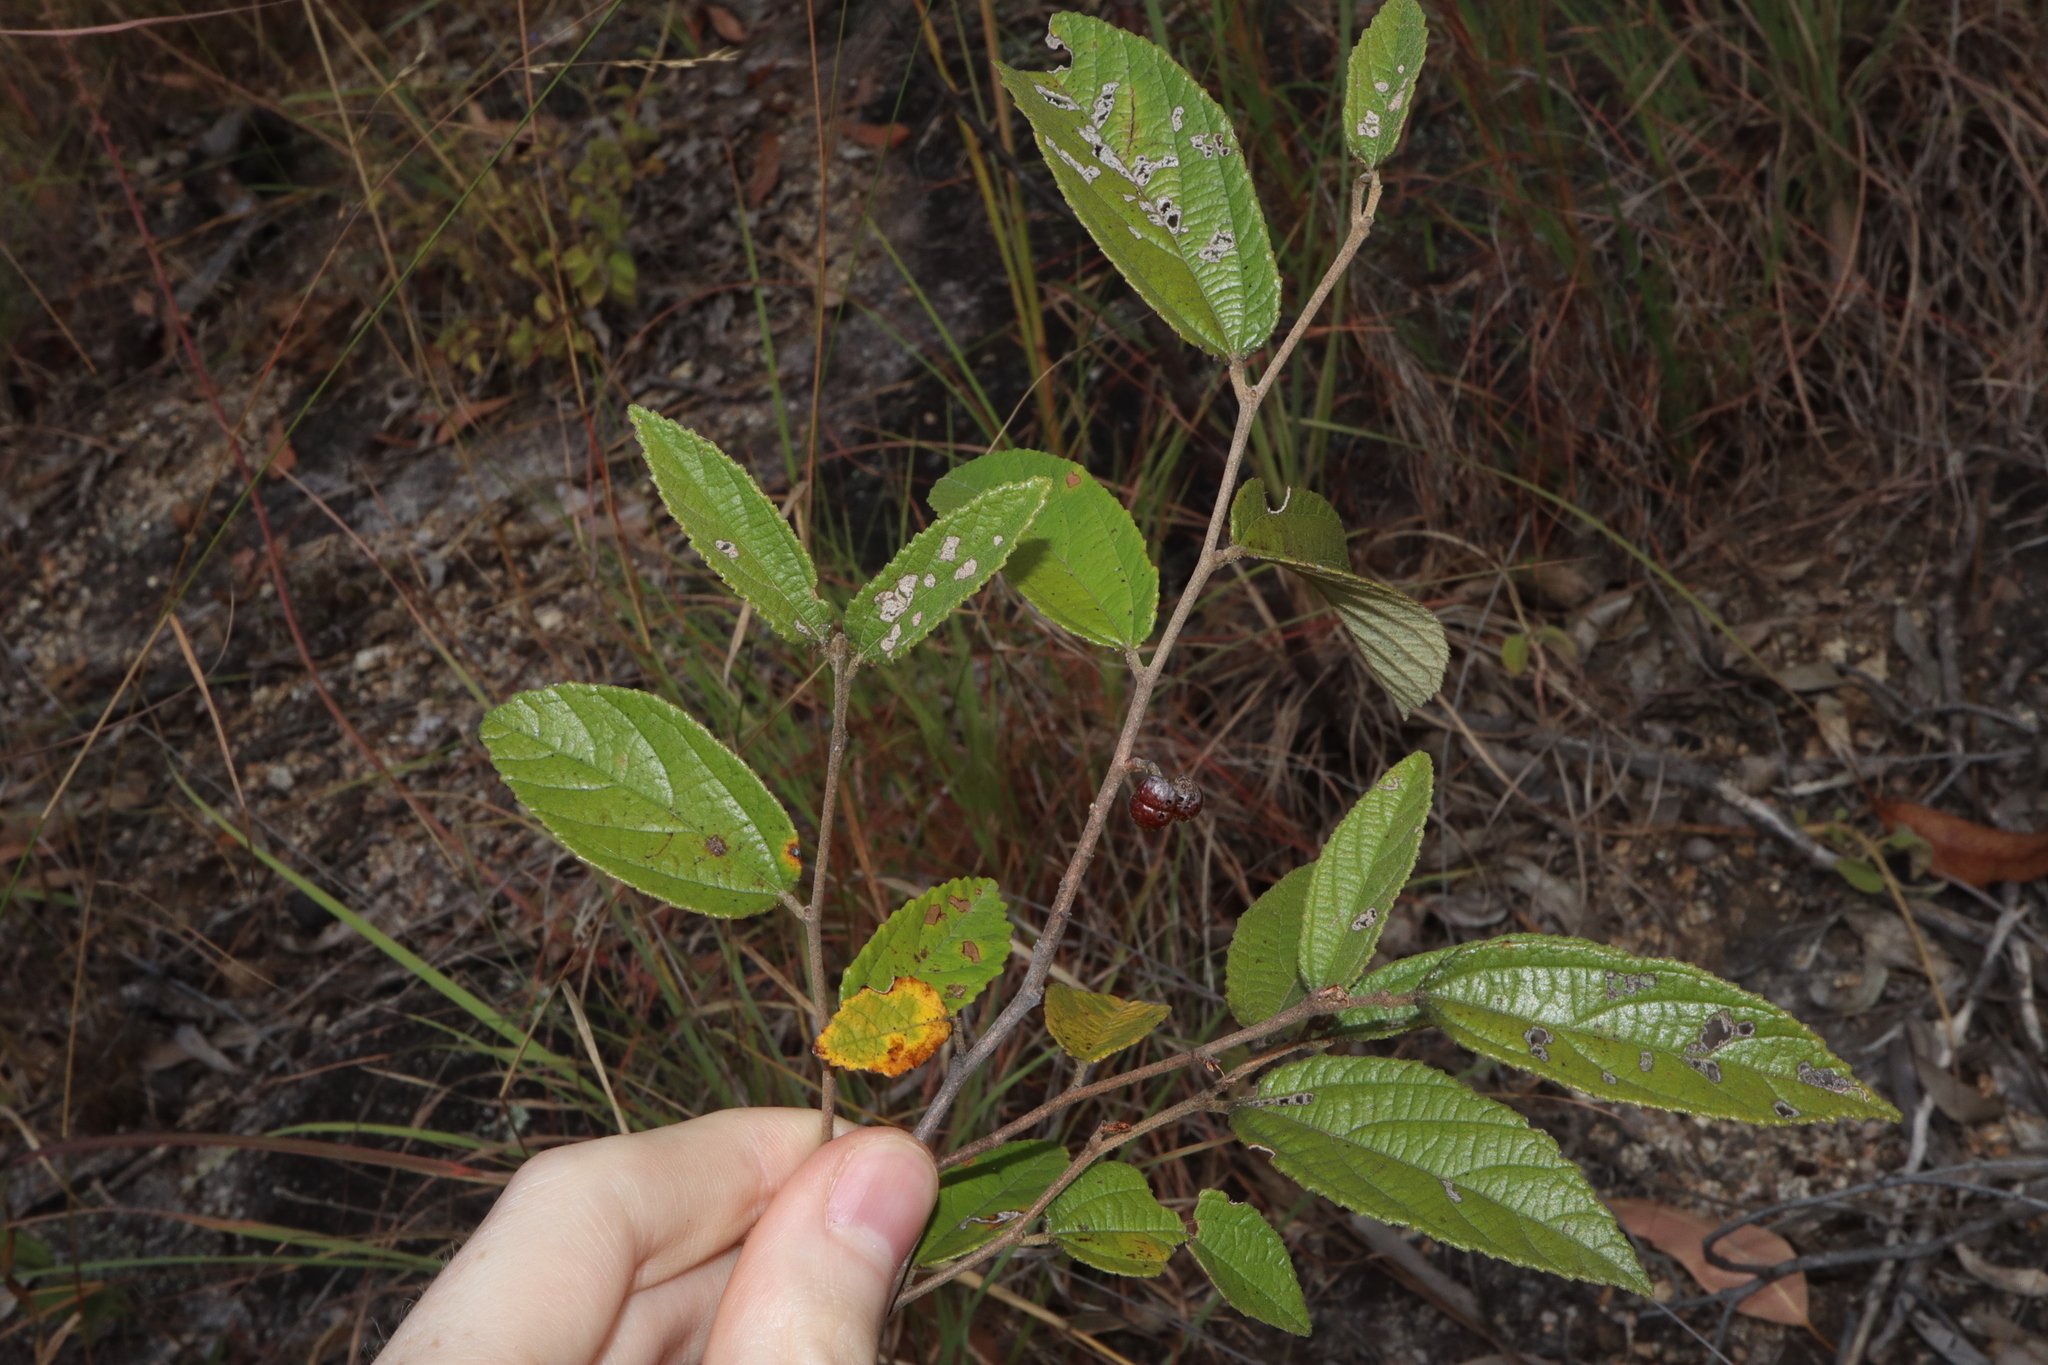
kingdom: Plantae
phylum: Tracheophyta
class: Magnoliopsida
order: Malvales
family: Malvaceae
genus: Grewia
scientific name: Grewia savannicola
